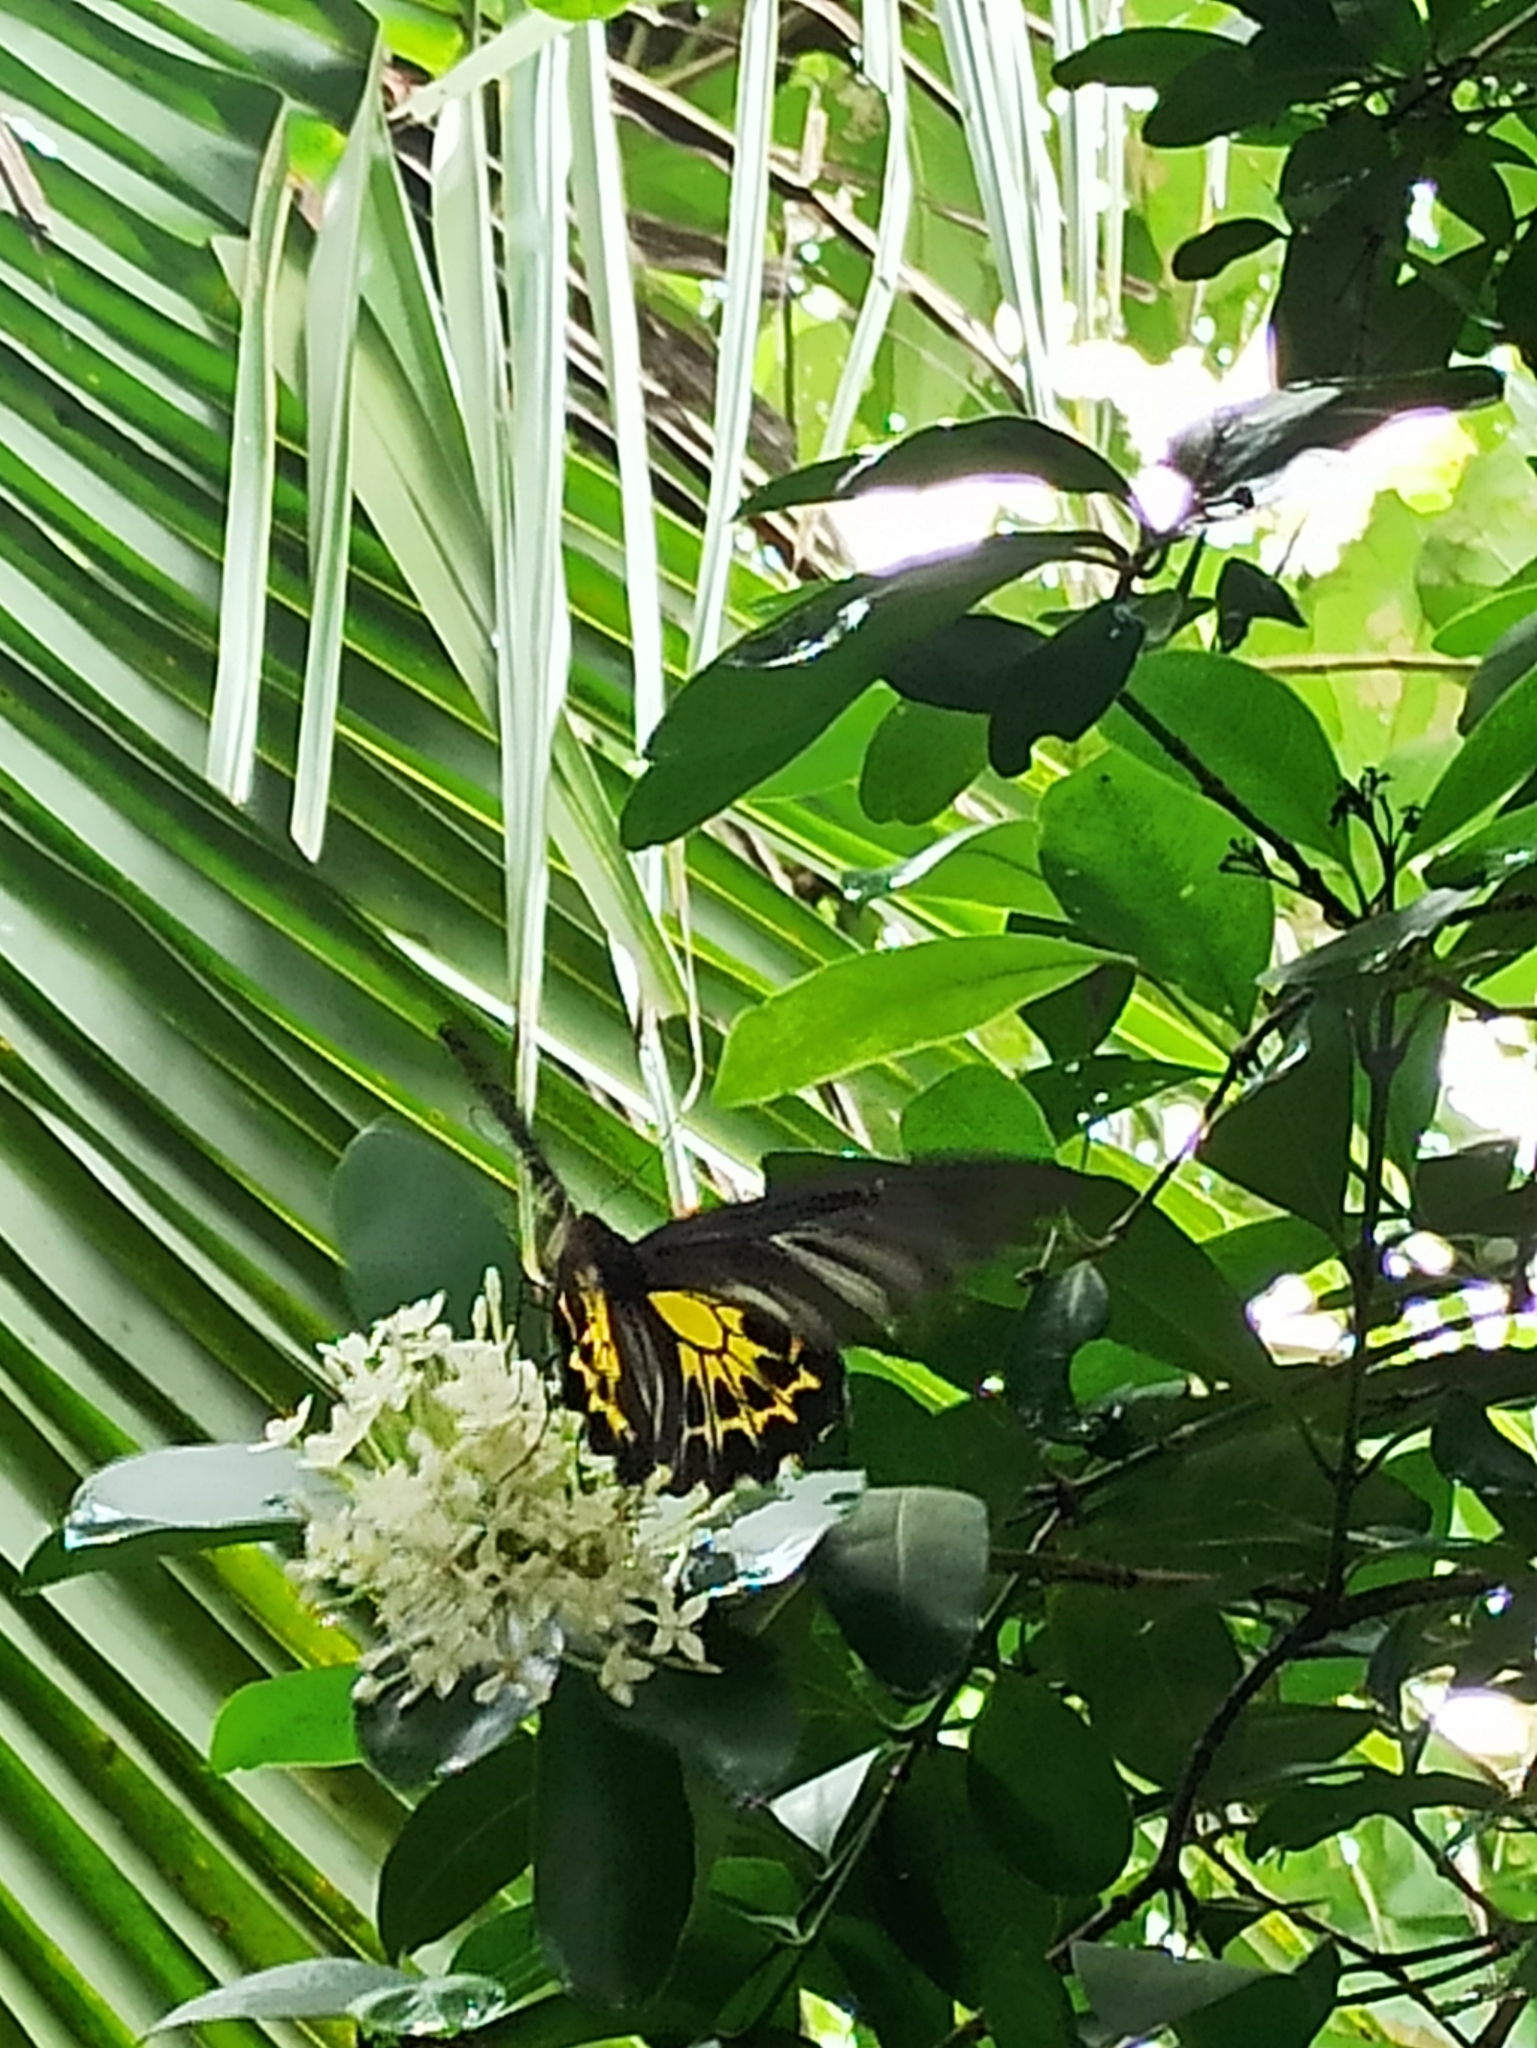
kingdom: Animalia
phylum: Arthropoda
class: Insecta
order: Lepidoptera
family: Papilionidae
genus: Troides
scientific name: Troides minos
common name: Malabar birdwing
